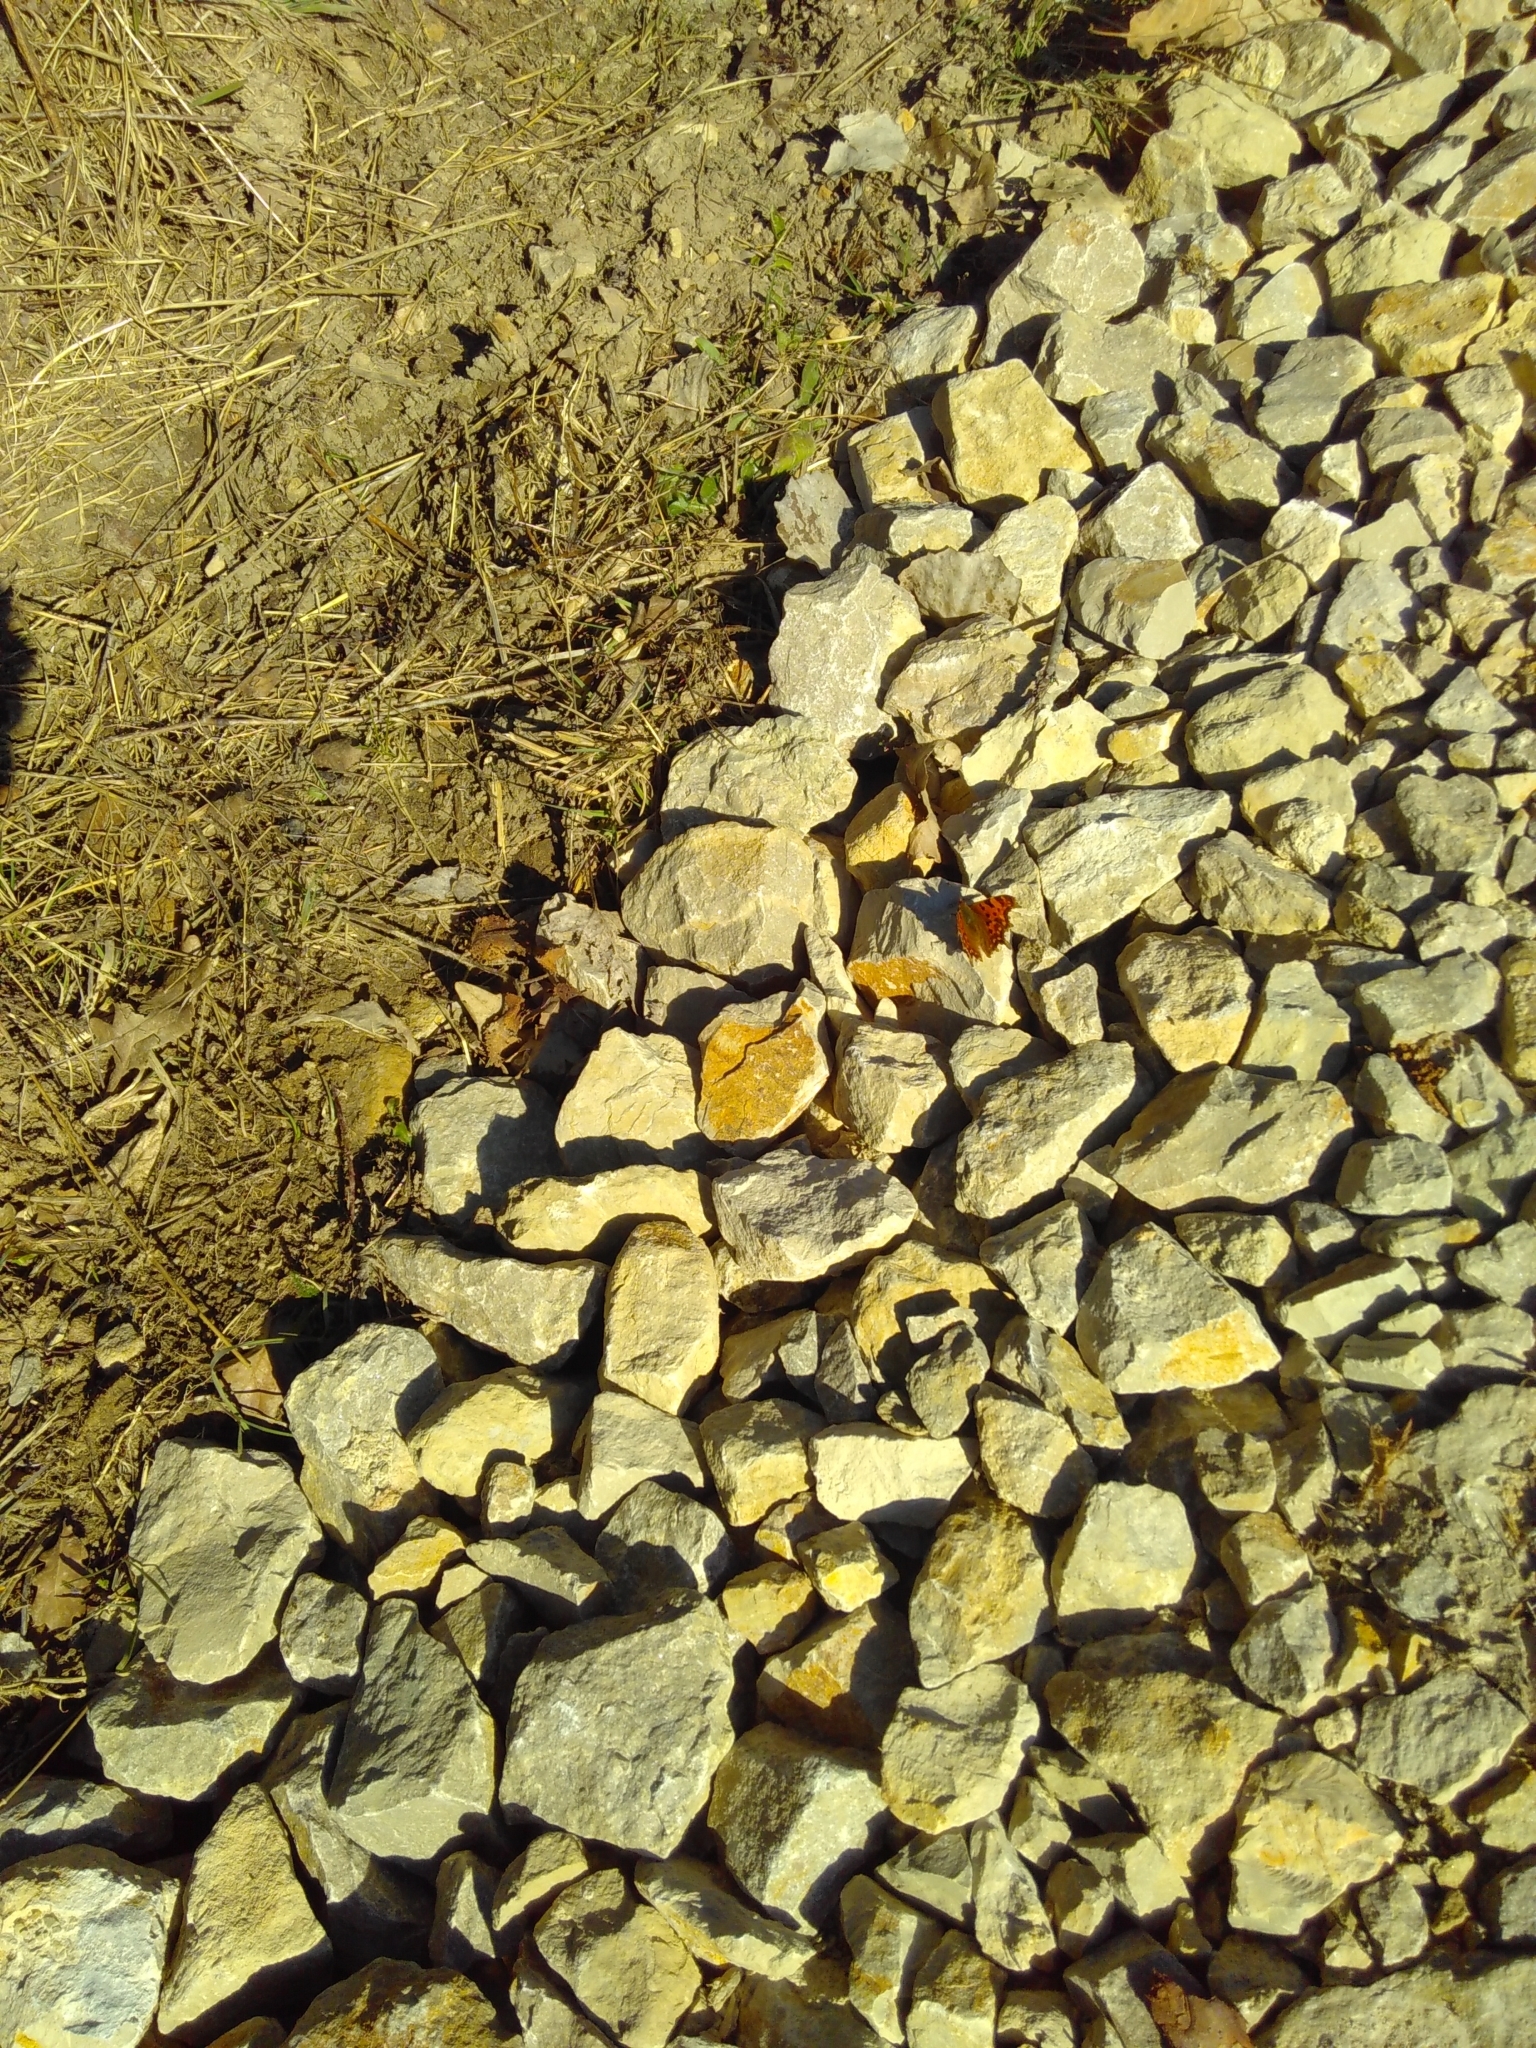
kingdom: Animalia
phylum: Arthropoda
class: Insecta
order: Lepidoptera
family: Nymphalidae
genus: Polygonia
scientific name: Polygonia c-album
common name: Comma
